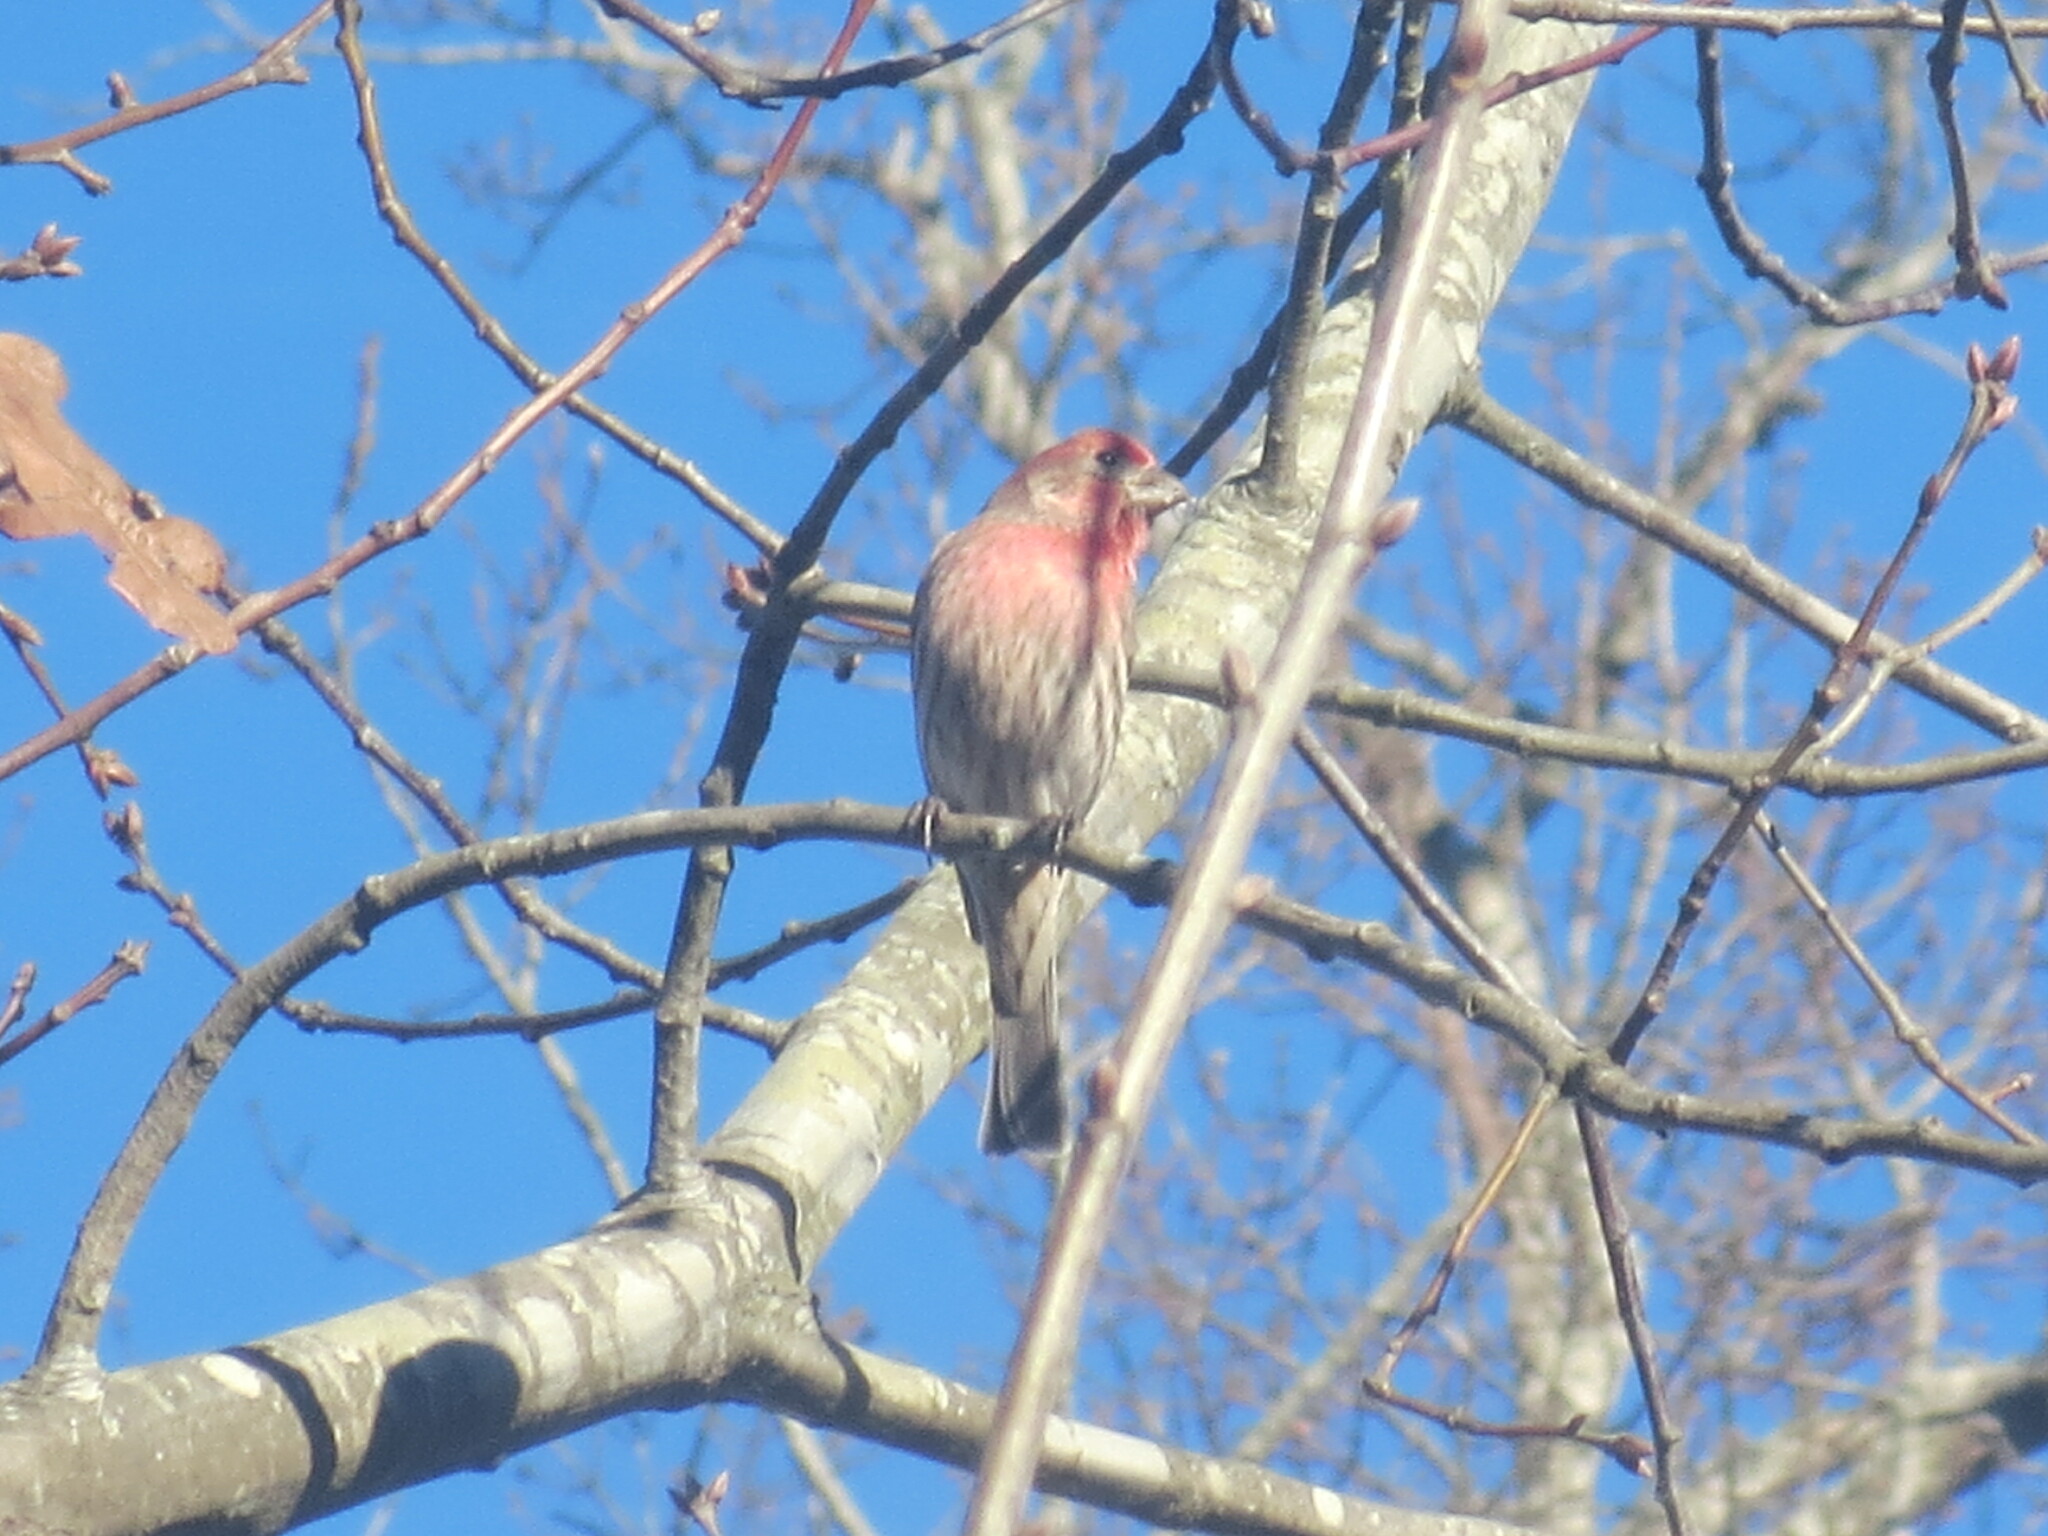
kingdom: Animalia
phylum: Chordata
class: Aves
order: Passeriformes
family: Fringillidae
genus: Haemorhous
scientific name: Haemorhous mexicanus
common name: House finch
